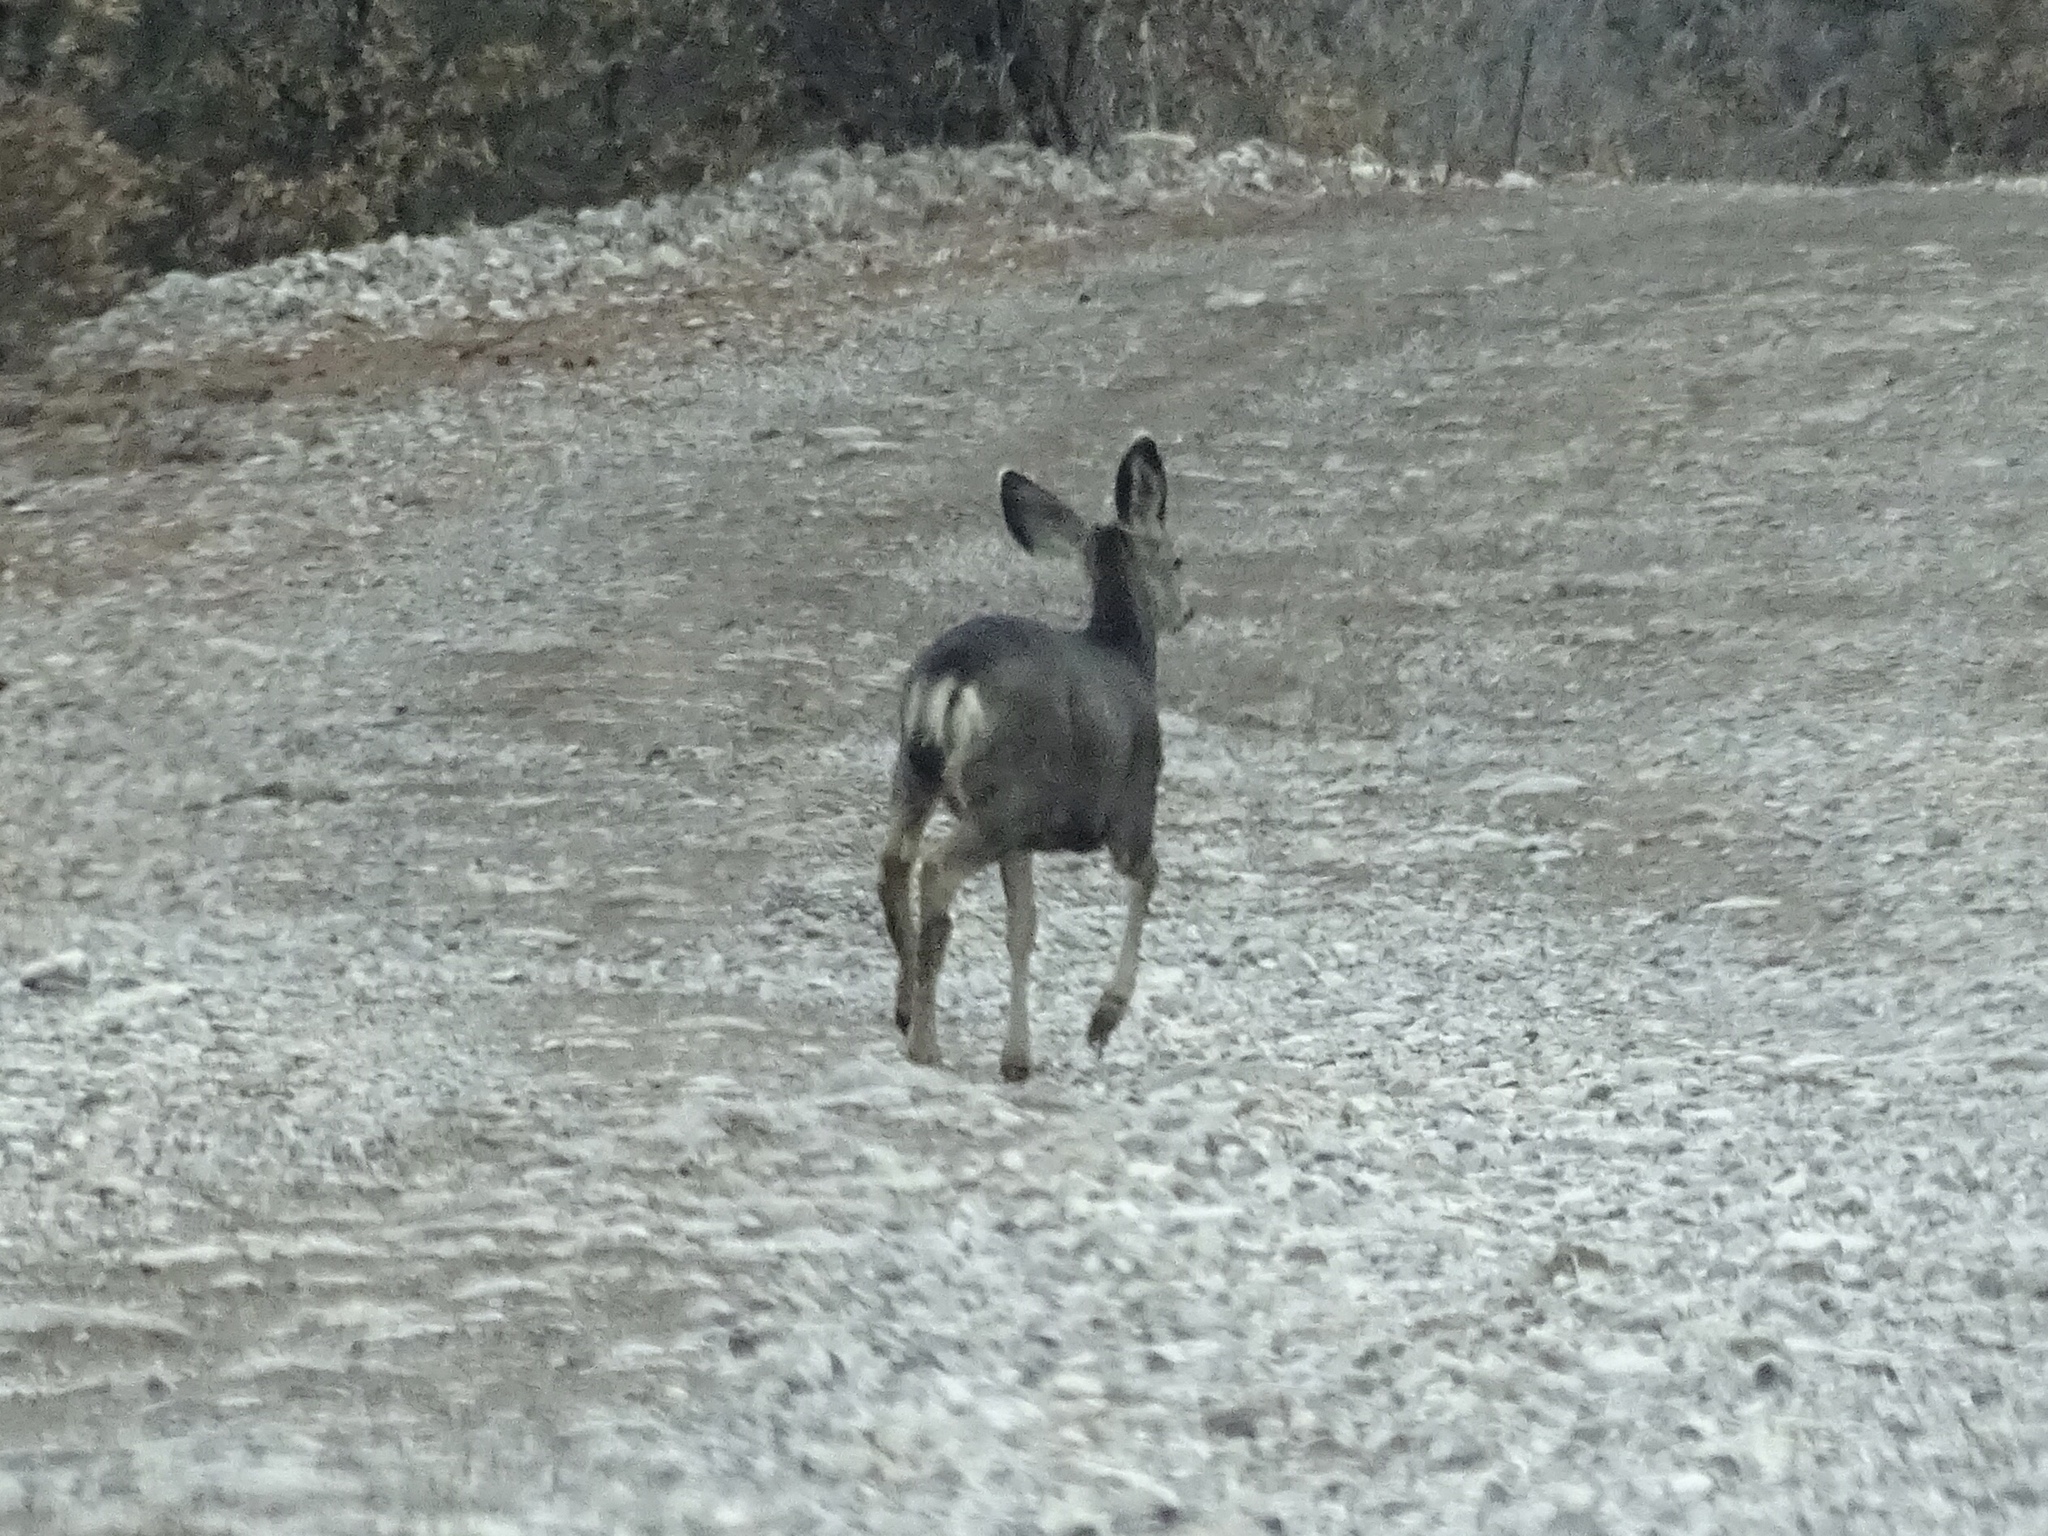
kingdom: Animalia
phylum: Chordata
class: Mammalia
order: Artiodactyla
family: Cervidae
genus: Odocoileus
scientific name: Odocoileus hemionus
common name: Mule deer
